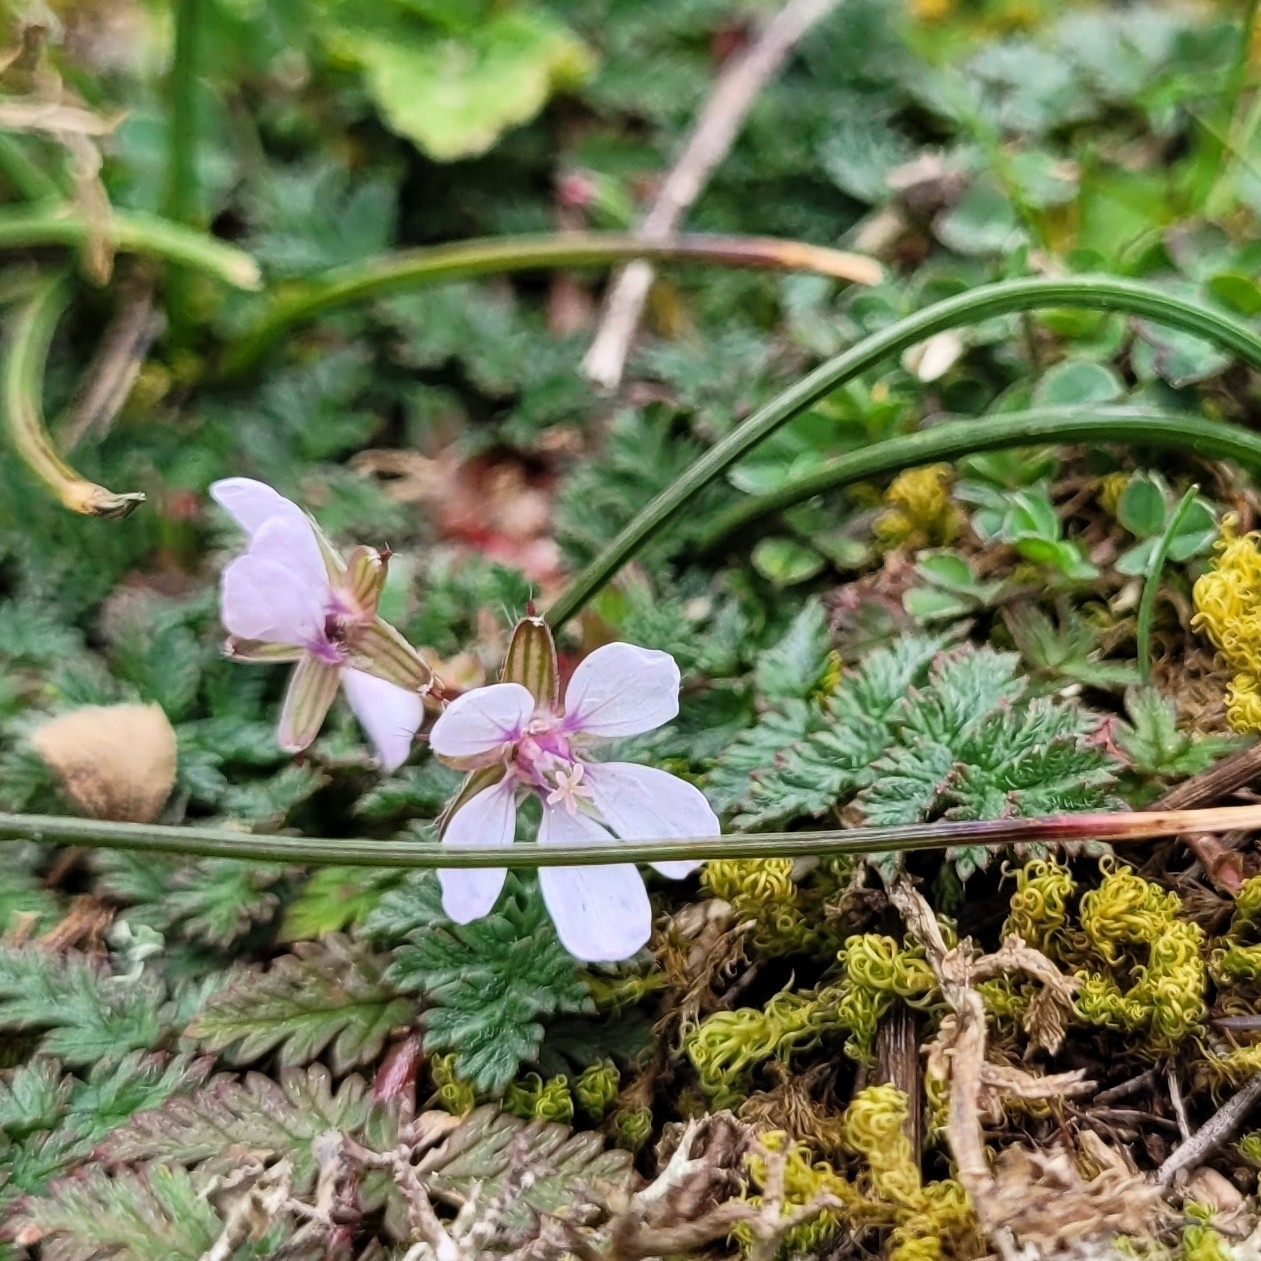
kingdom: Plantae
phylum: Tracheophyta
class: Magnoliopsida
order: Geraniales
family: Geraniaceae
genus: Erodium
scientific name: Erodium cicutarium
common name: Common stork's-bill
